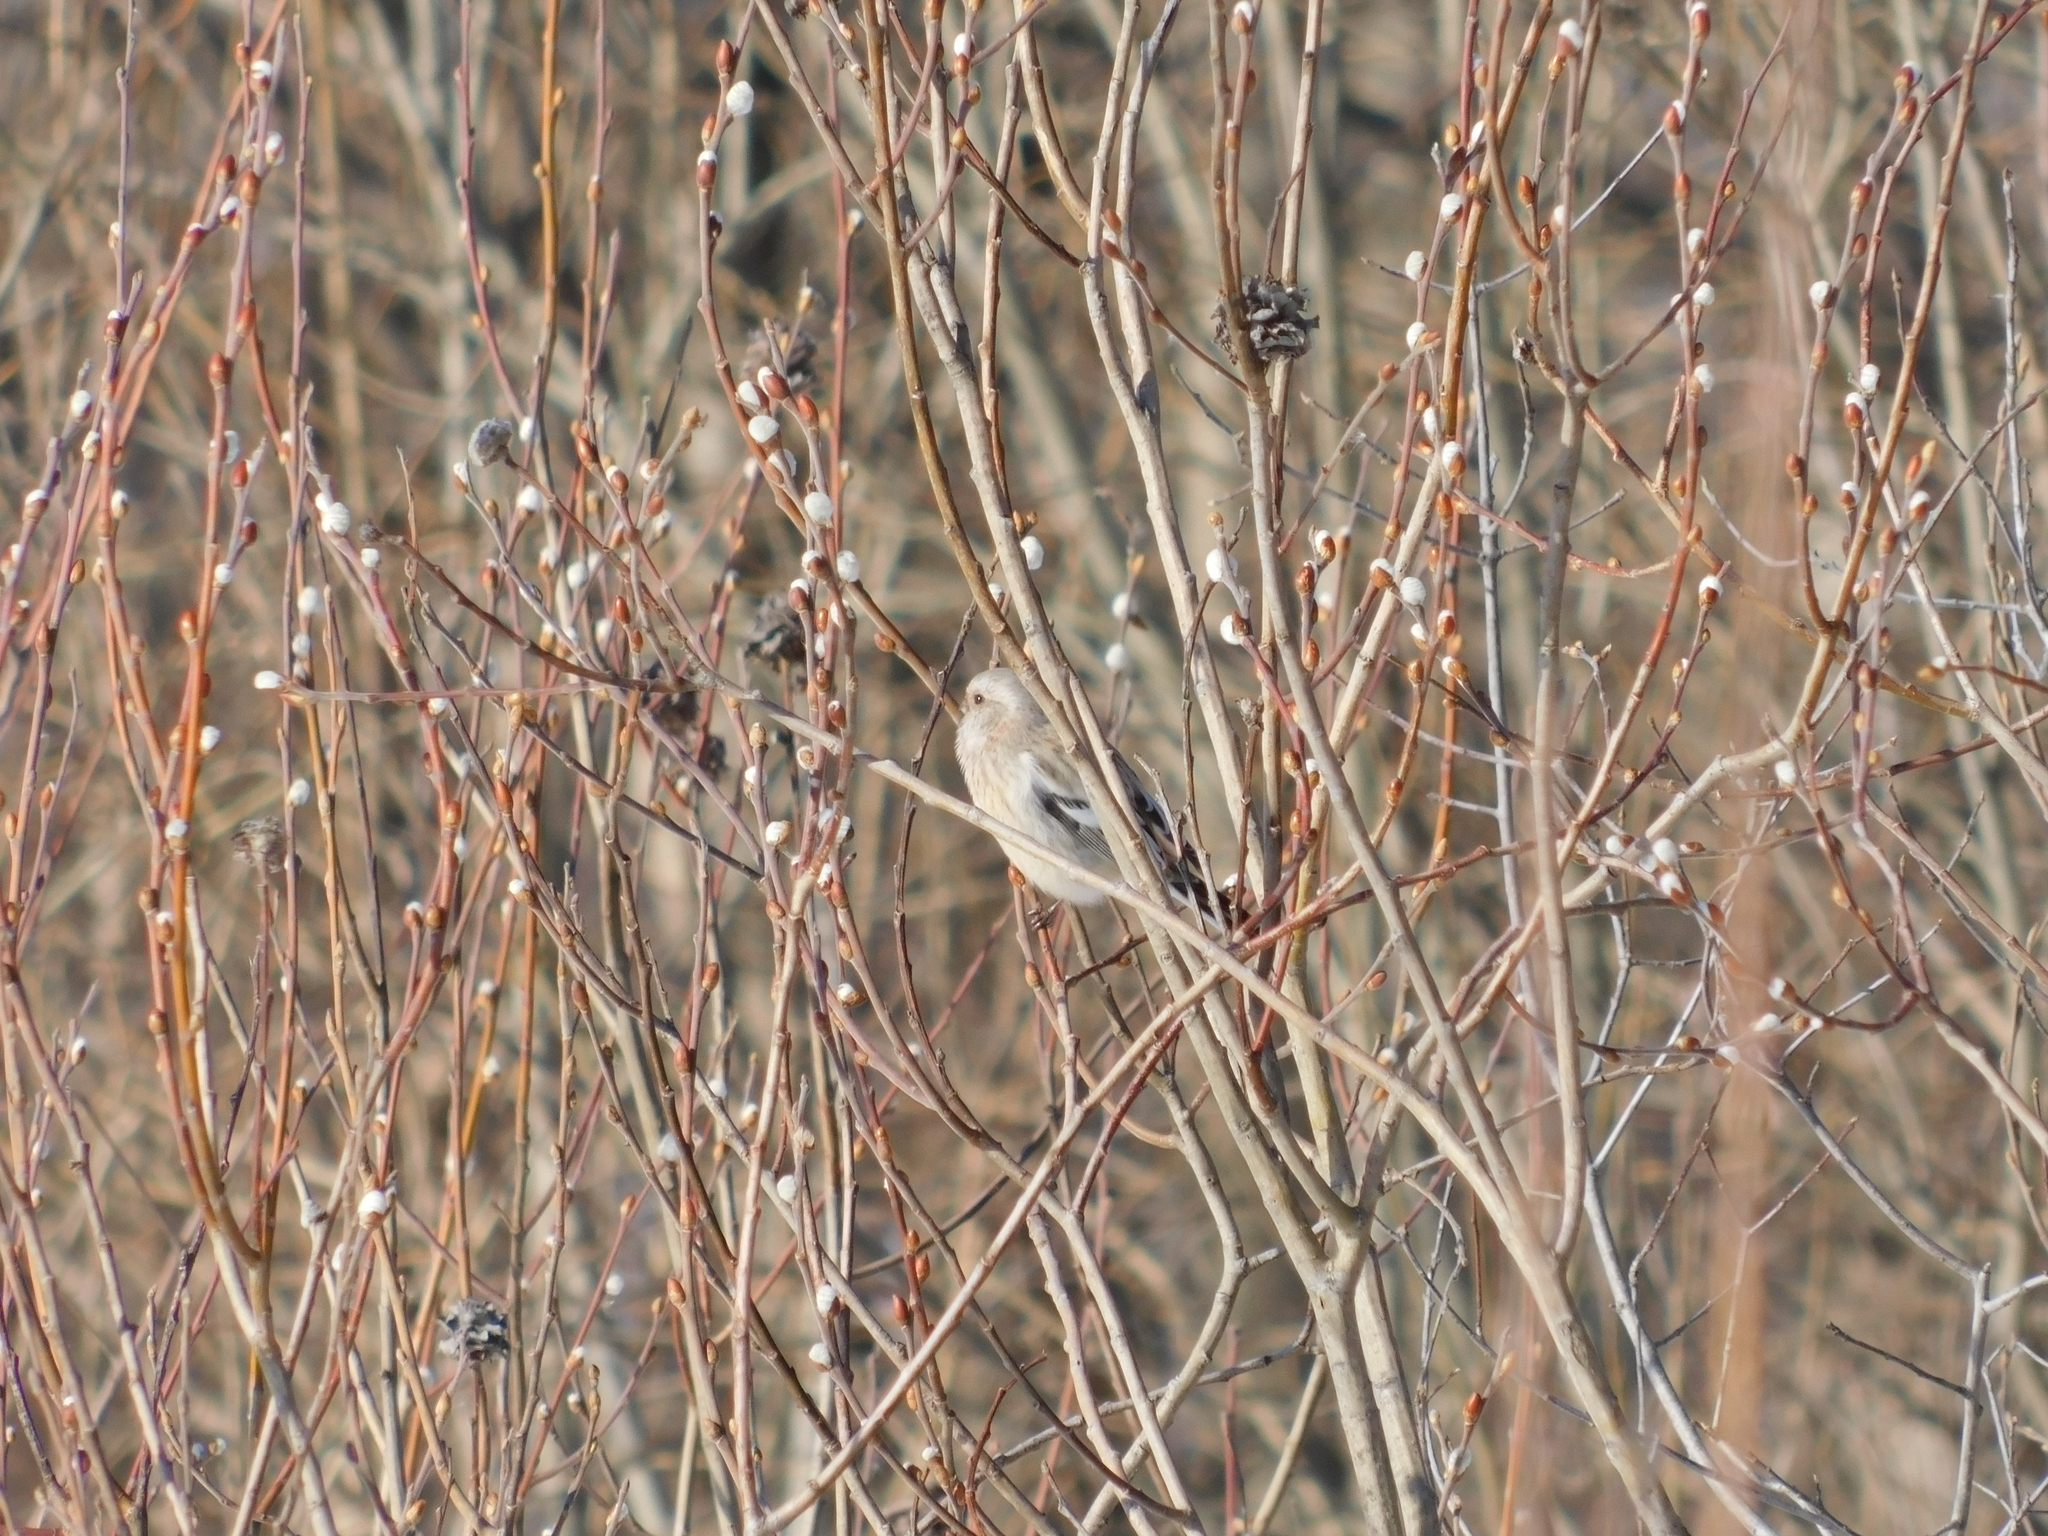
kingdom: Animalia
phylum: Chordata
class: Aves
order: Passeriformes
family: Fringillidae
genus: Carpodacus
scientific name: Carpodacus sibiricus
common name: Long-tailed rosefinch
